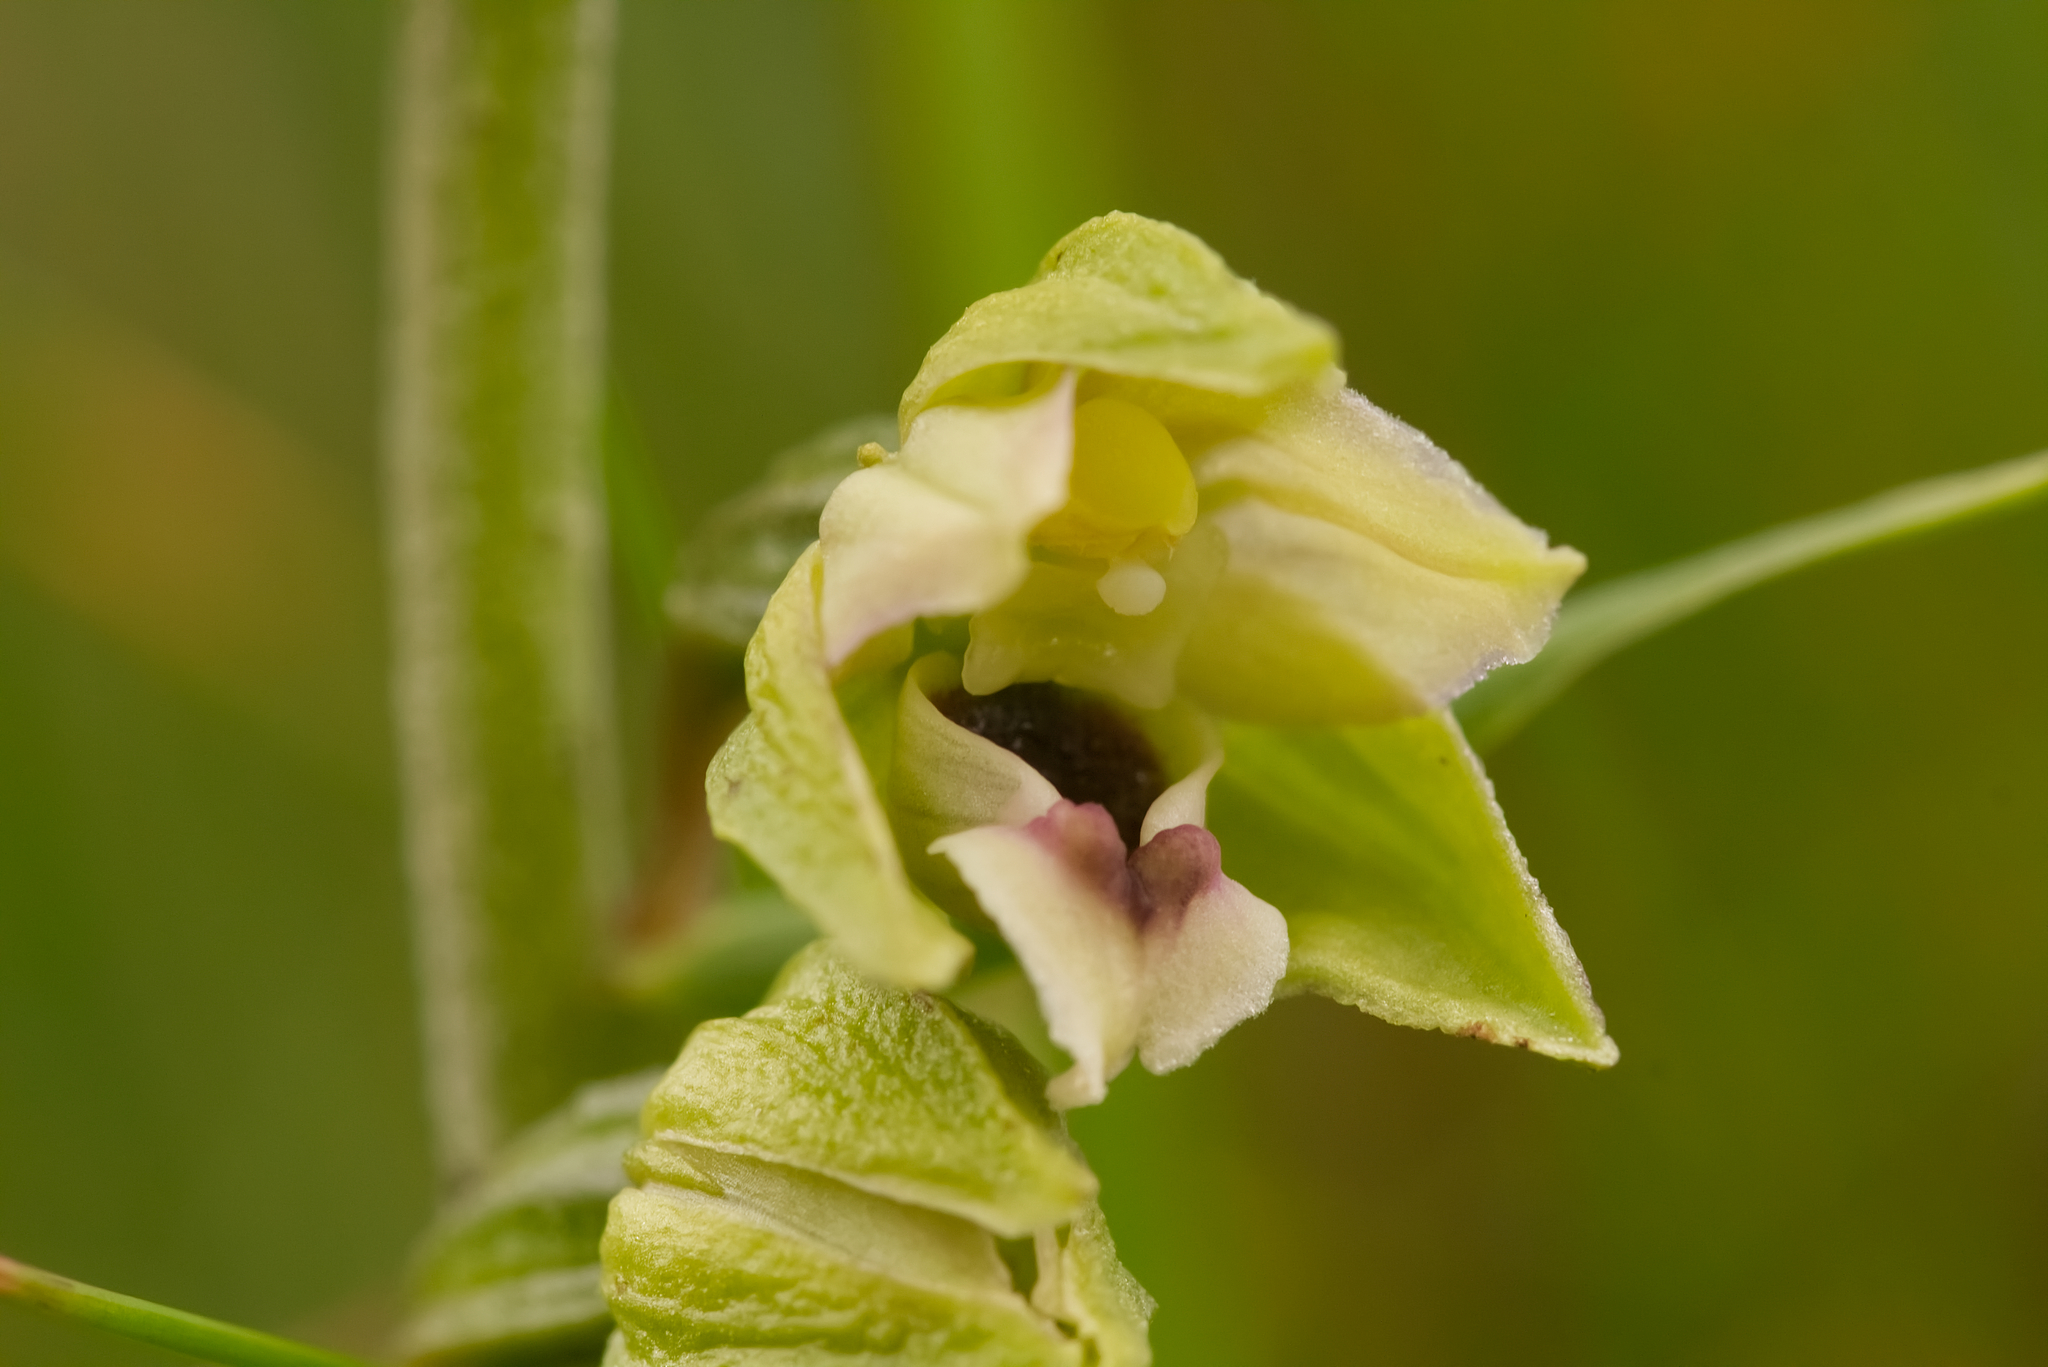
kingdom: Plantae
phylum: Tracheophyta
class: Liliopsida
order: Asparagales
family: Orchidaceae
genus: Epipactis
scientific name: Epipactis helleborine
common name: Broad-leaved helleborine
